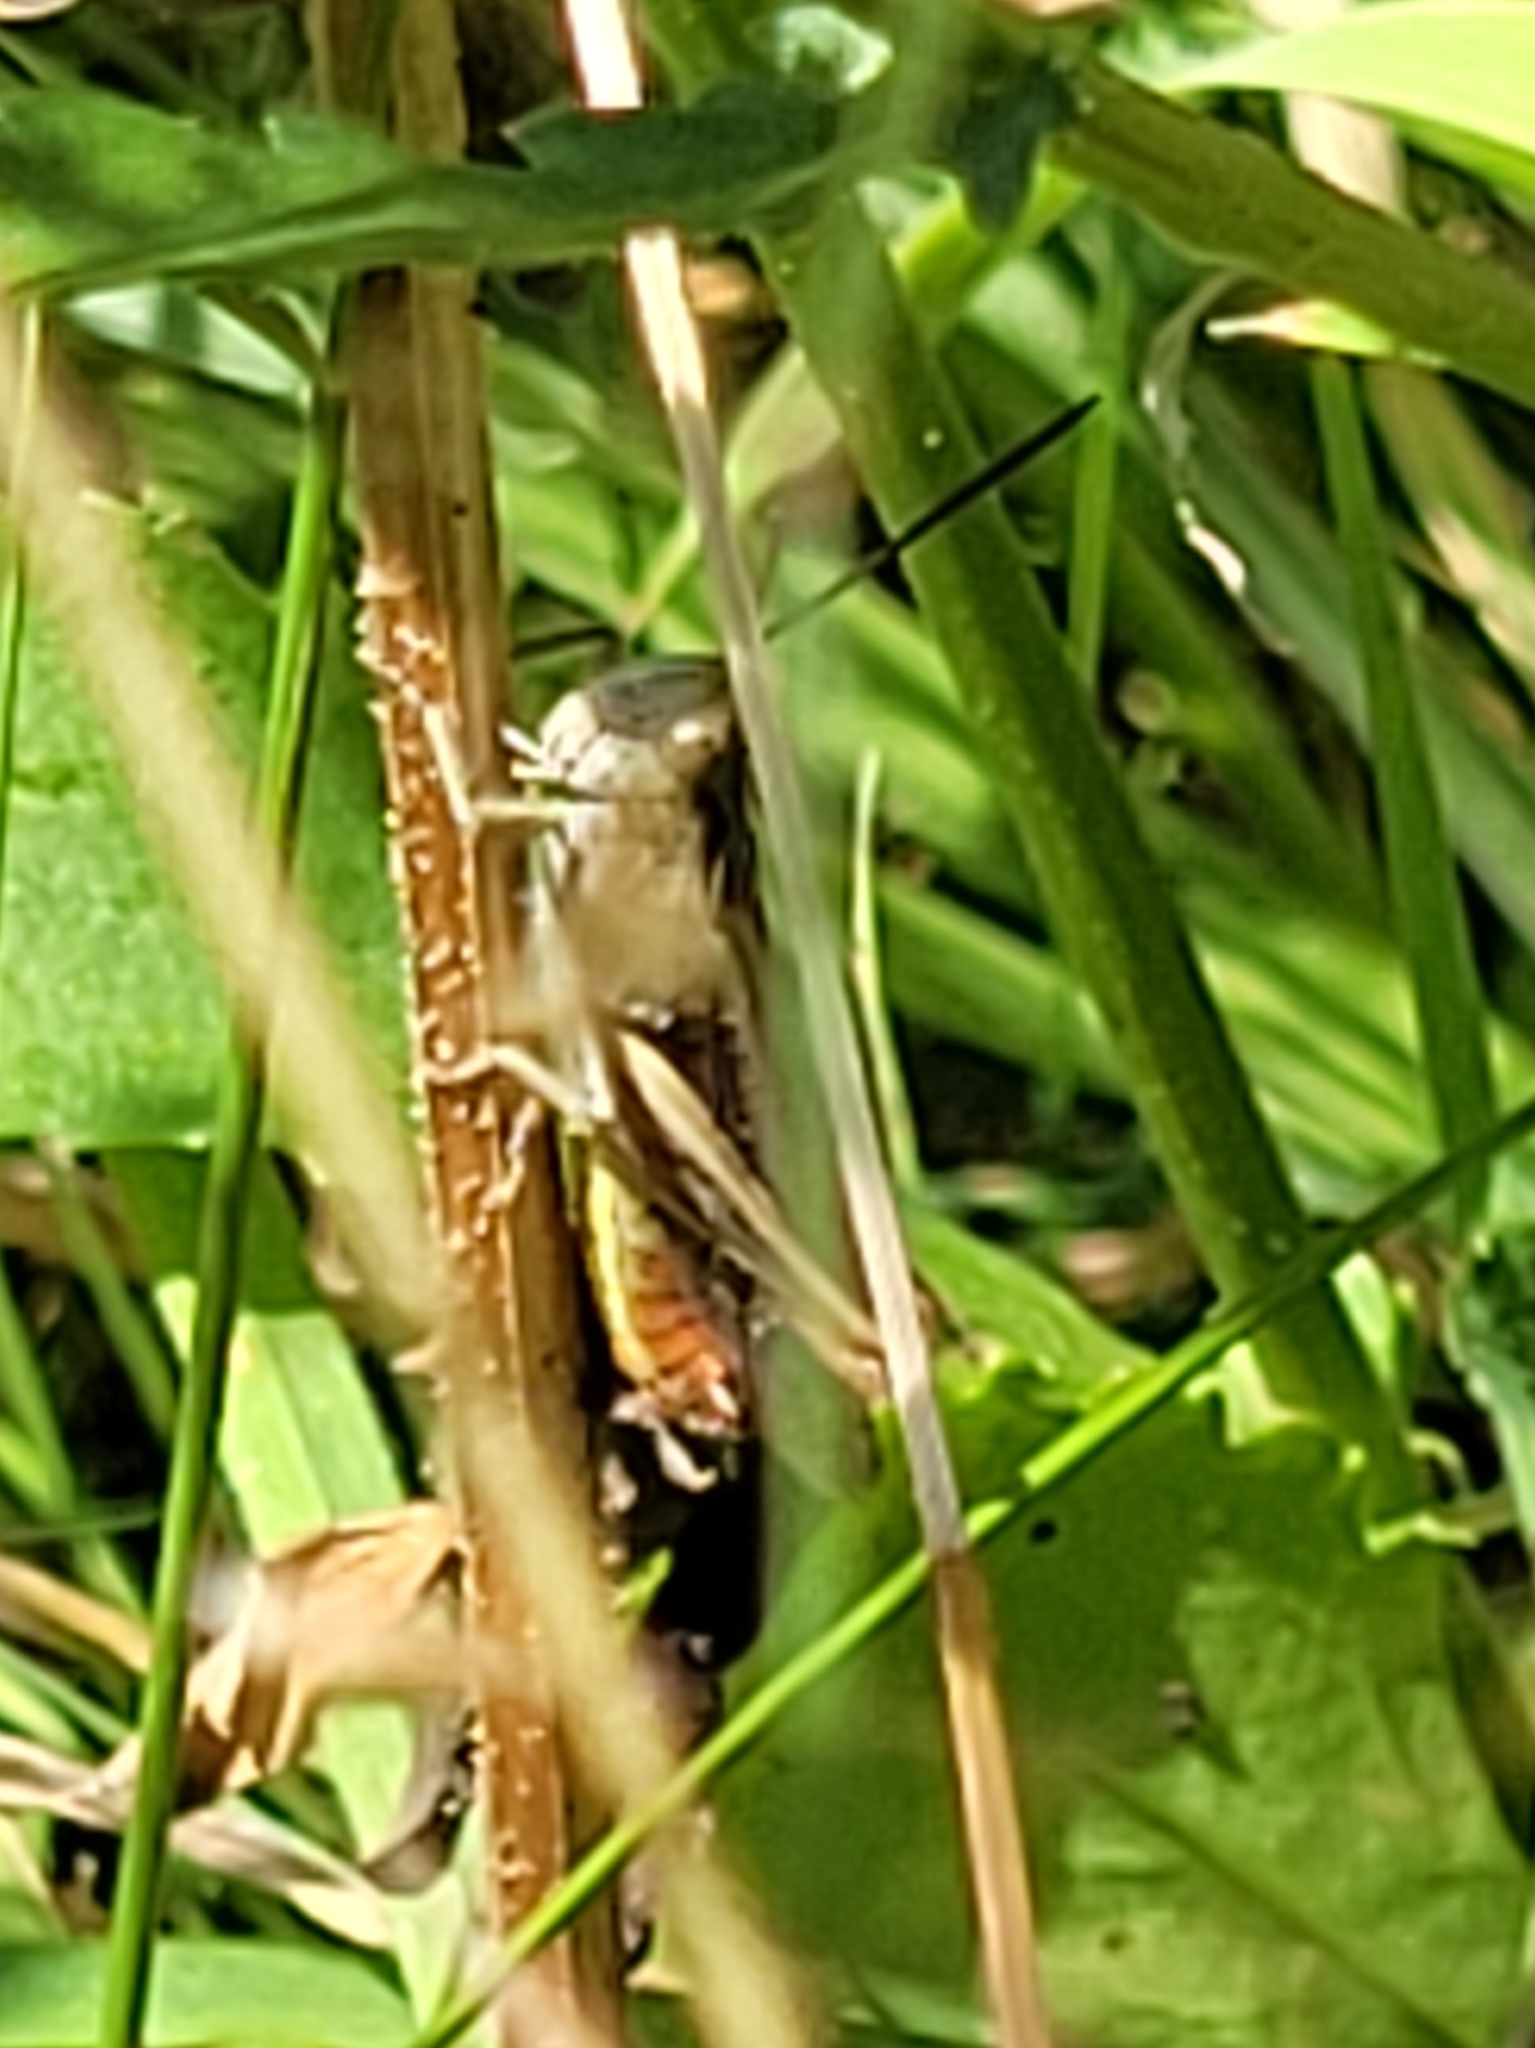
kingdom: Animalia
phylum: Arthropoda
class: Insecta
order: Orthoptera
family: Acrididae
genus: Chorthippus
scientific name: Chorthippus biguttulus
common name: Bow-winged grasshopper
